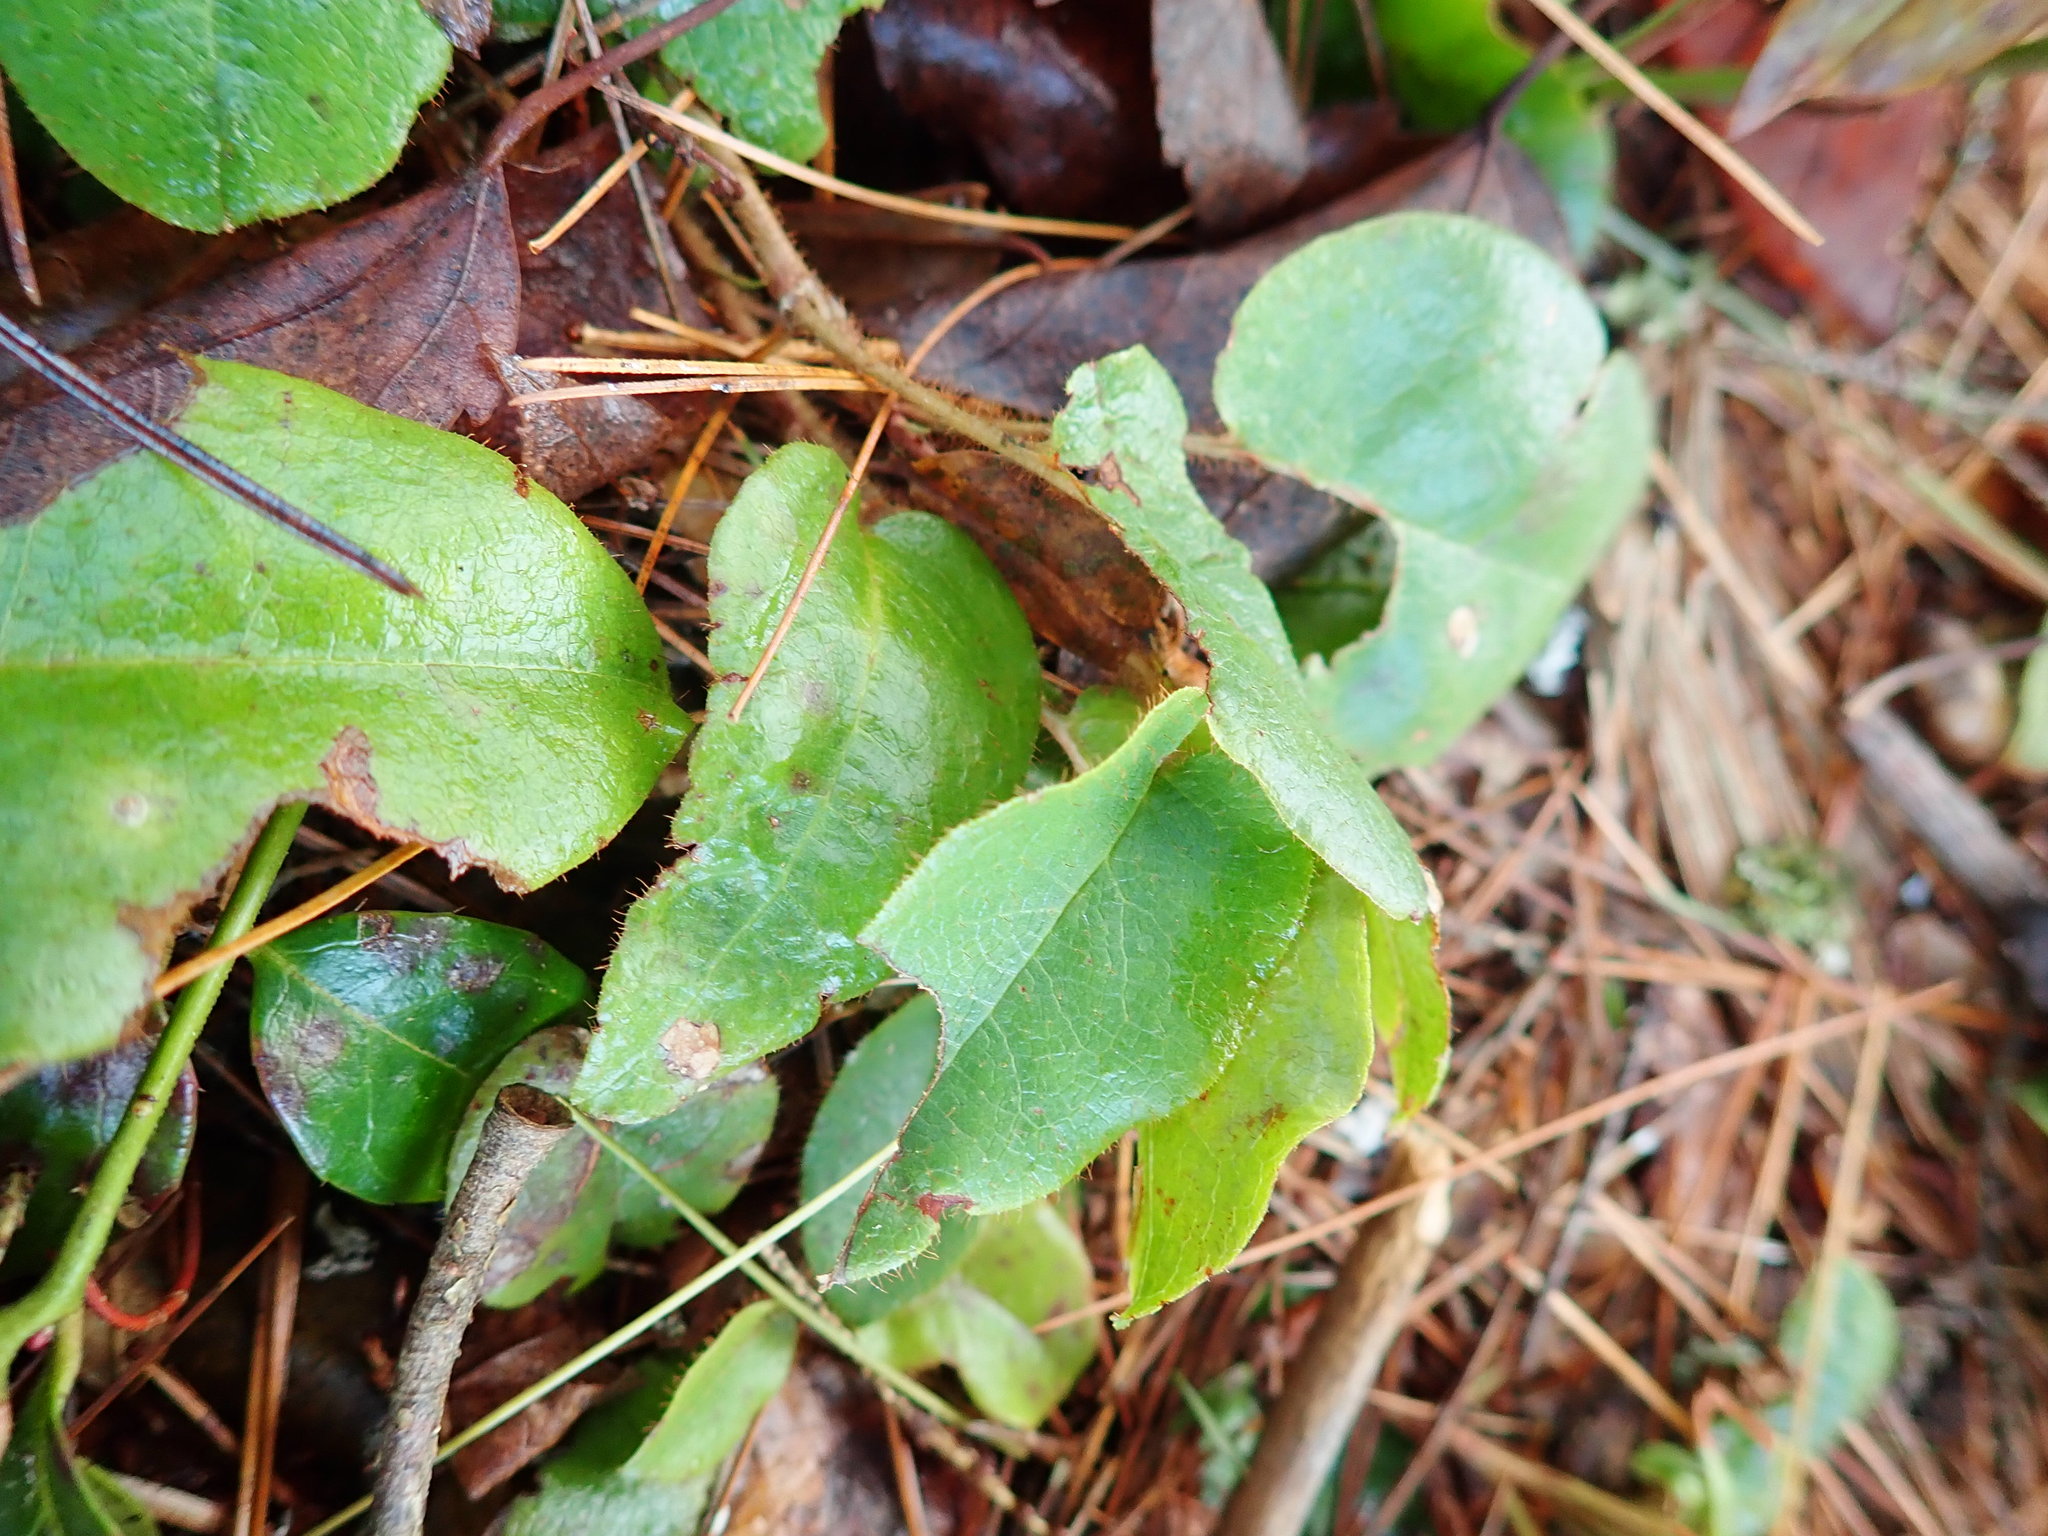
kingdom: Plantae
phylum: Tracheophyta
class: Magnoliopsida
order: Ericales
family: Ericaceae
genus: Epigaea
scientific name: Epigaea repens
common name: Gravelroot
